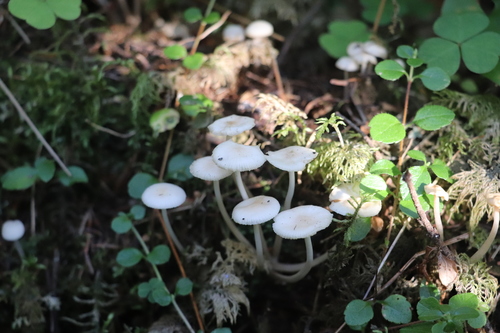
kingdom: Fungi
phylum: Basidiomycota
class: Agaricomycetes
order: Agaricales
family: Marasmiaceae
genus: Marasmius
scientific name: Marasmius wynneae
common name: Pearly parachute
